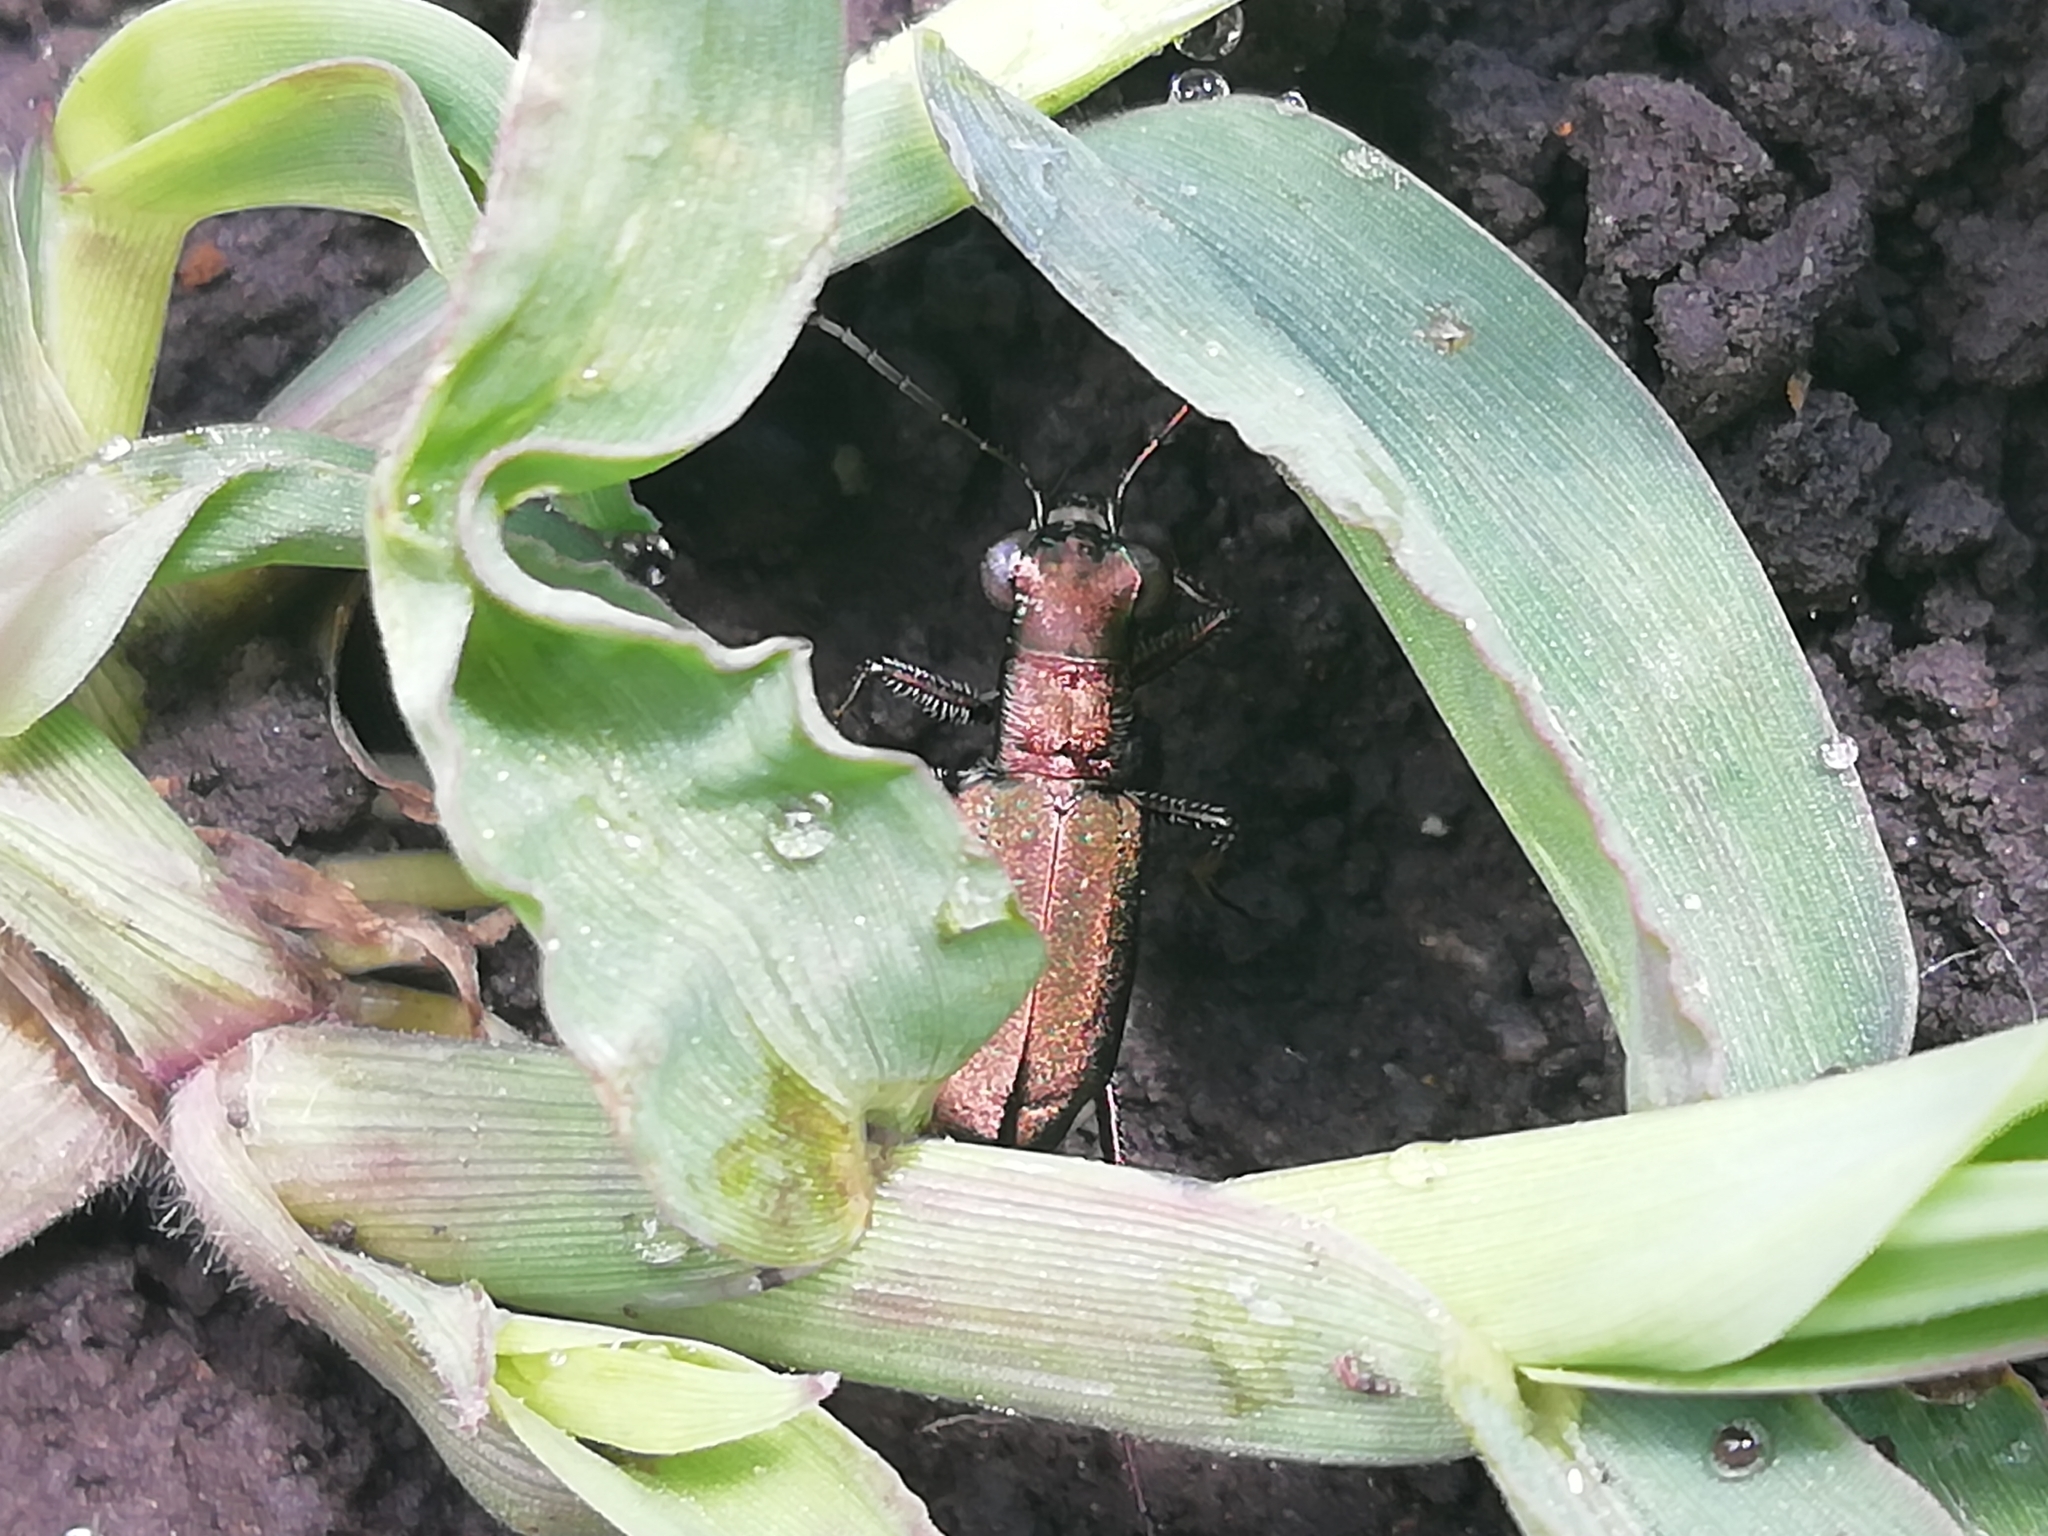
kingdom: Animalia
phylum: Arthropoda
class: Insecta
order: Coleoptera
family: Carabidae
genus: Cylindera
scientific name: Cylindera germanica
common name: Cliff tiger beetle
